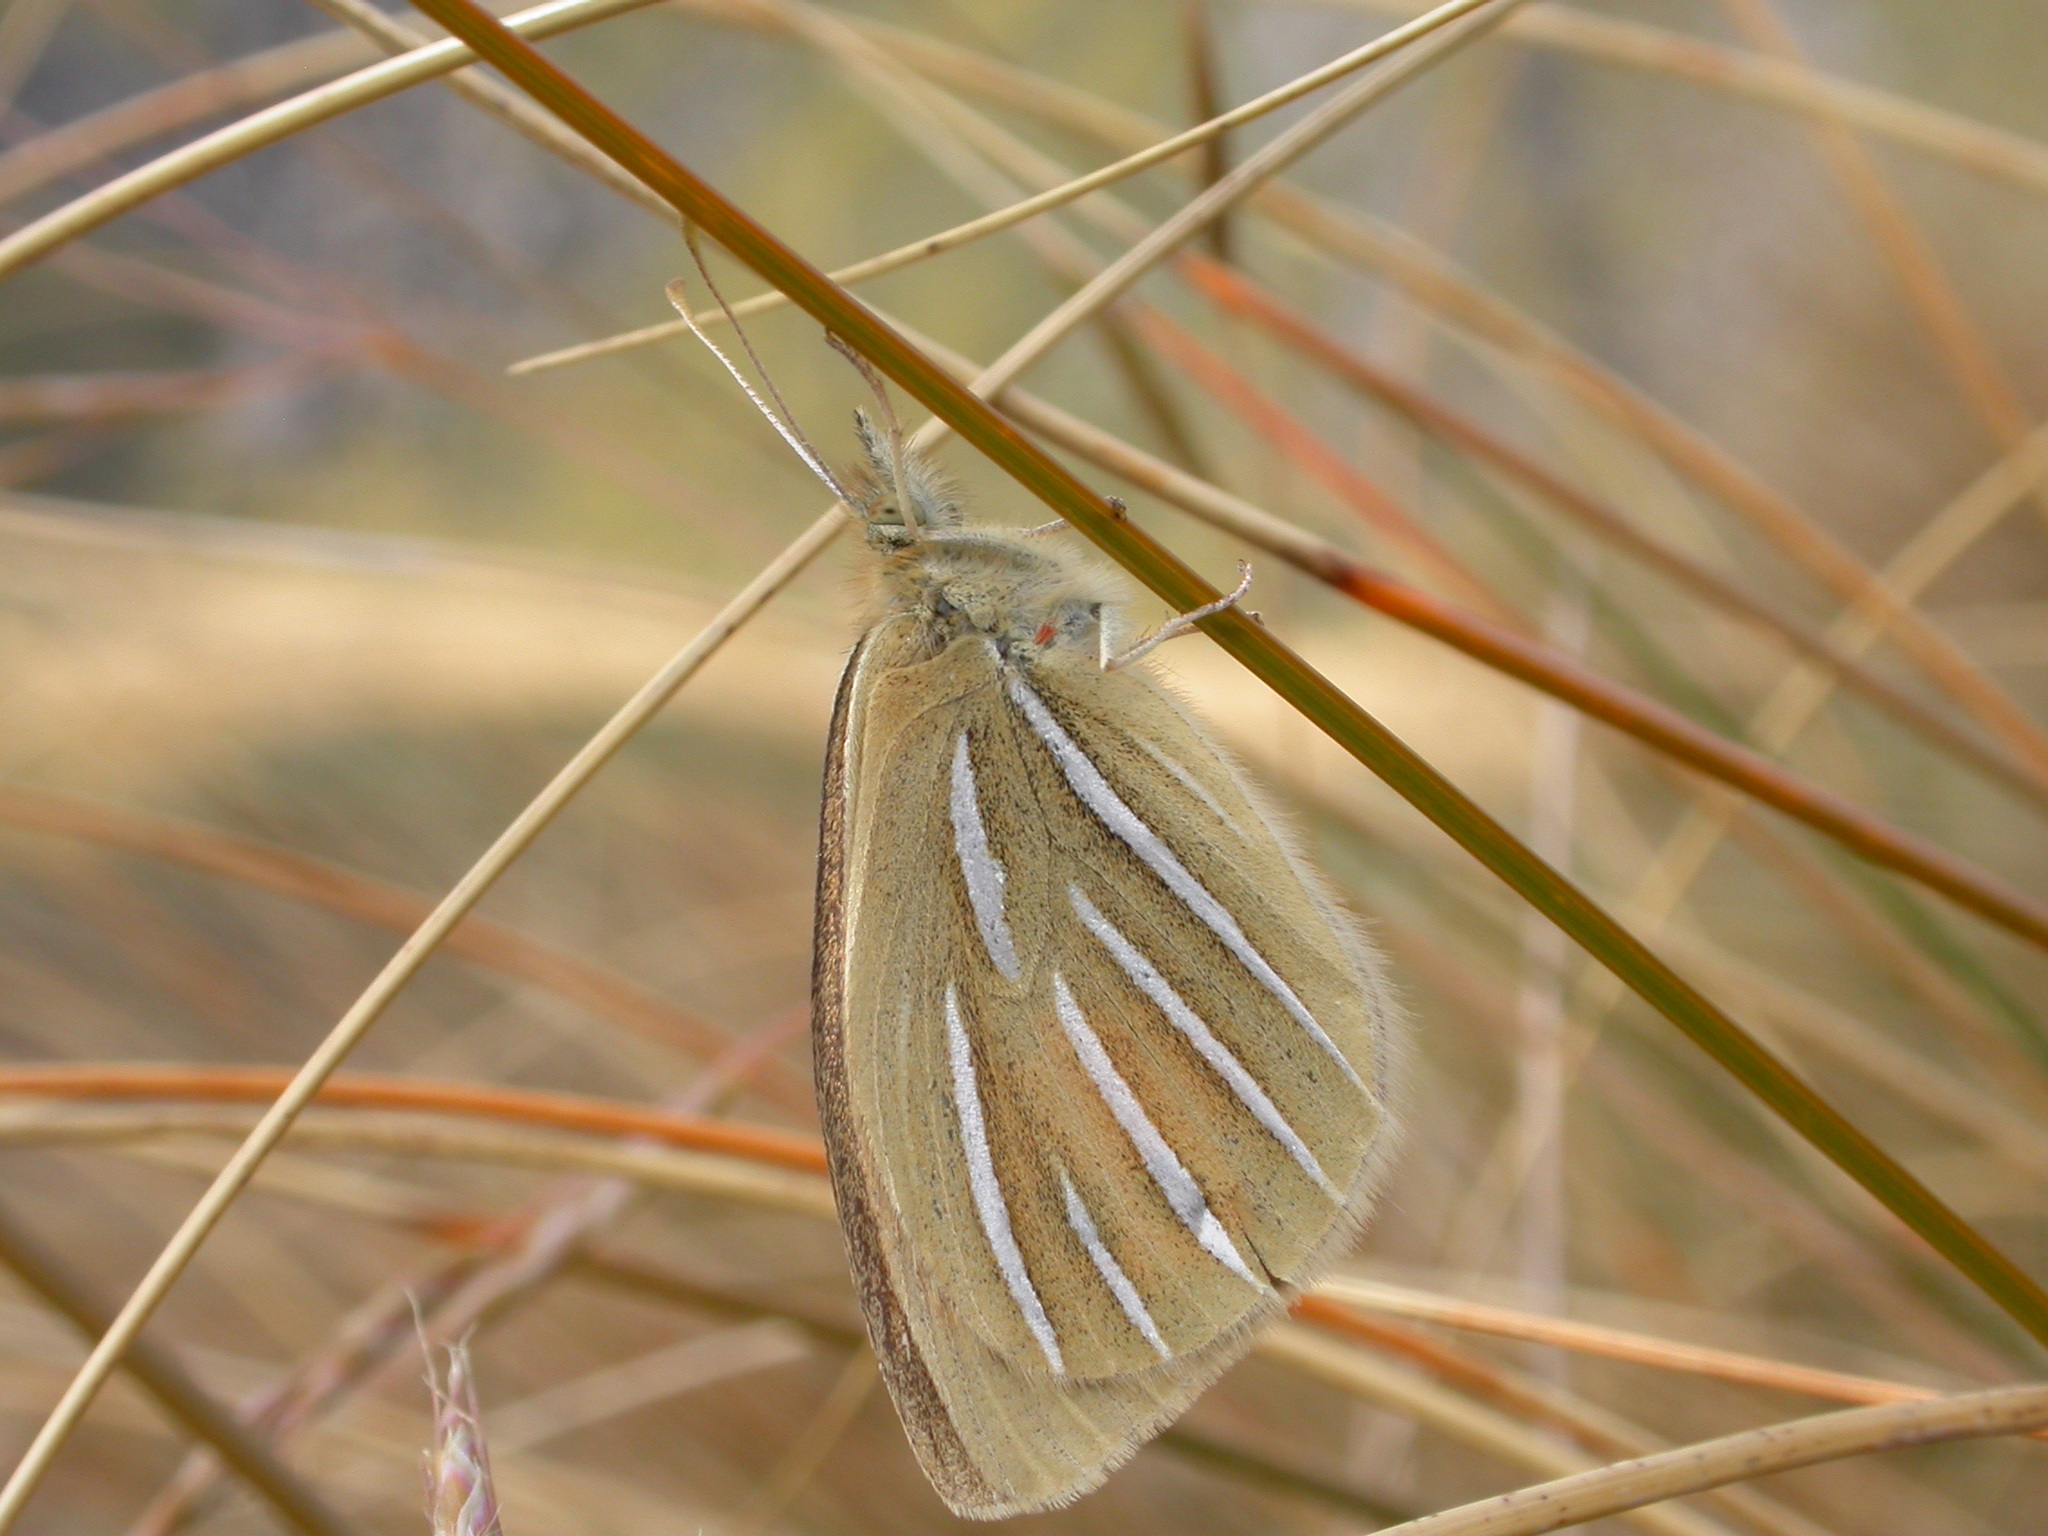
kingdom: Animalia
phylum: Arthropoda
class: Insecta
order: Lepidoptera
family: Nymphalidae
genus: Argyrophenga
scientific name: Argyrophenga janitae
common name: Janita's tussock
